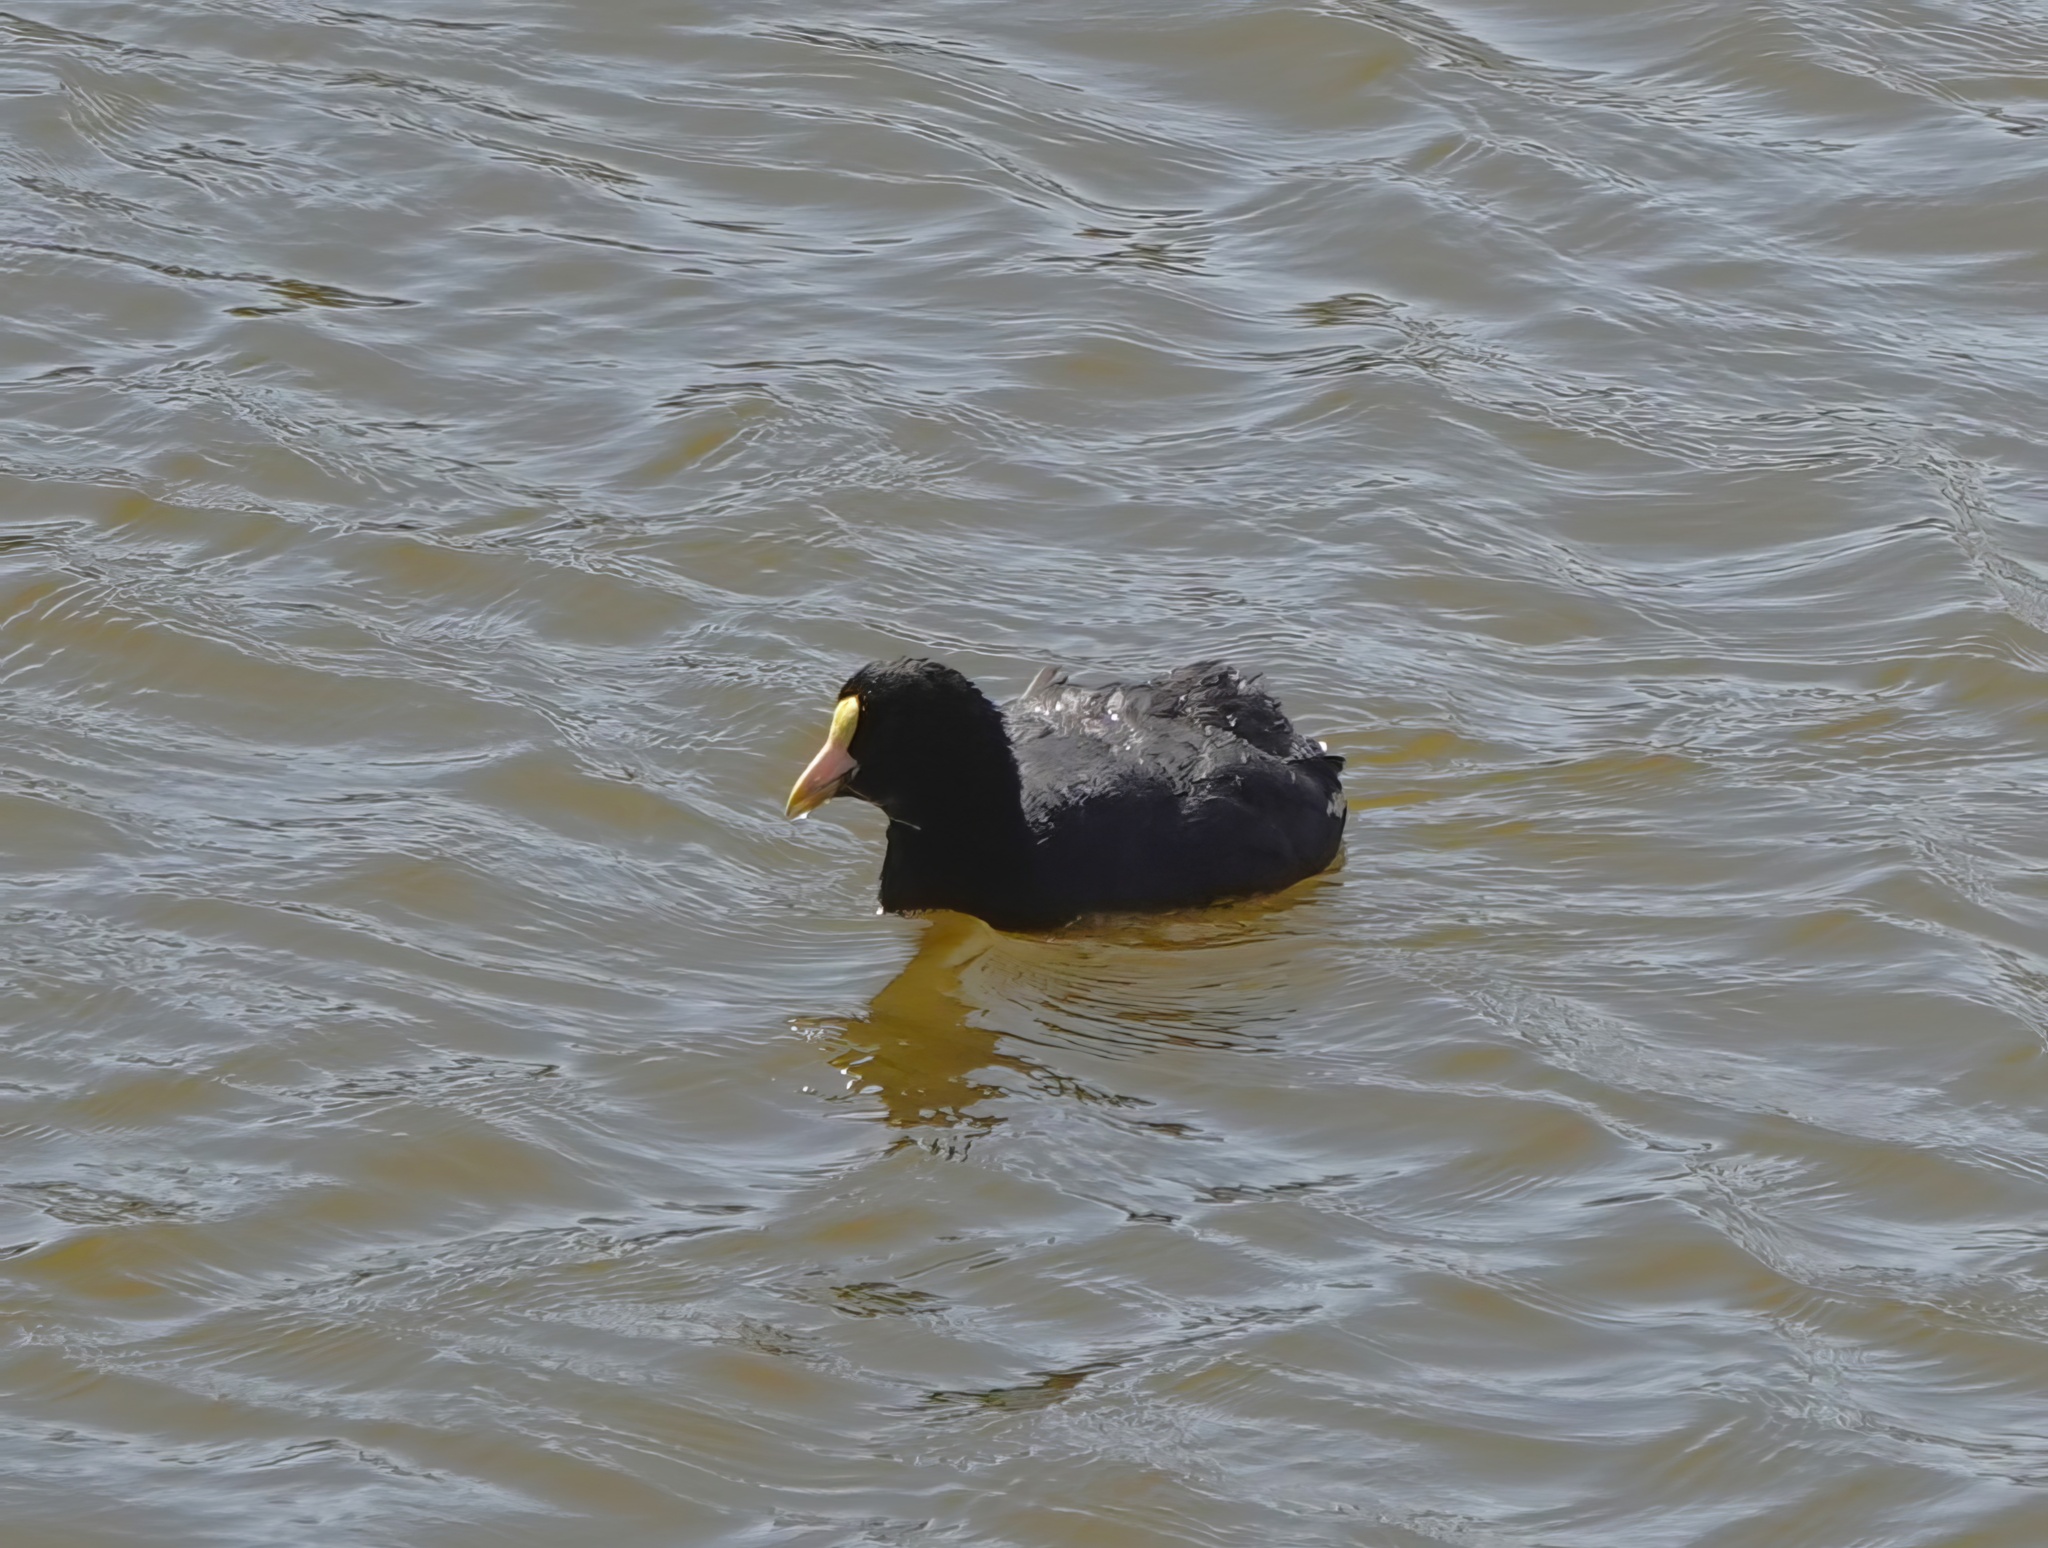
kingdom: Animalia
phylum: Chordata
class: Aves
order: Gruiformes
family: Rallidae
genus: Fulica
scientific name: Fulica leucoptera
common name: White-winged coot
